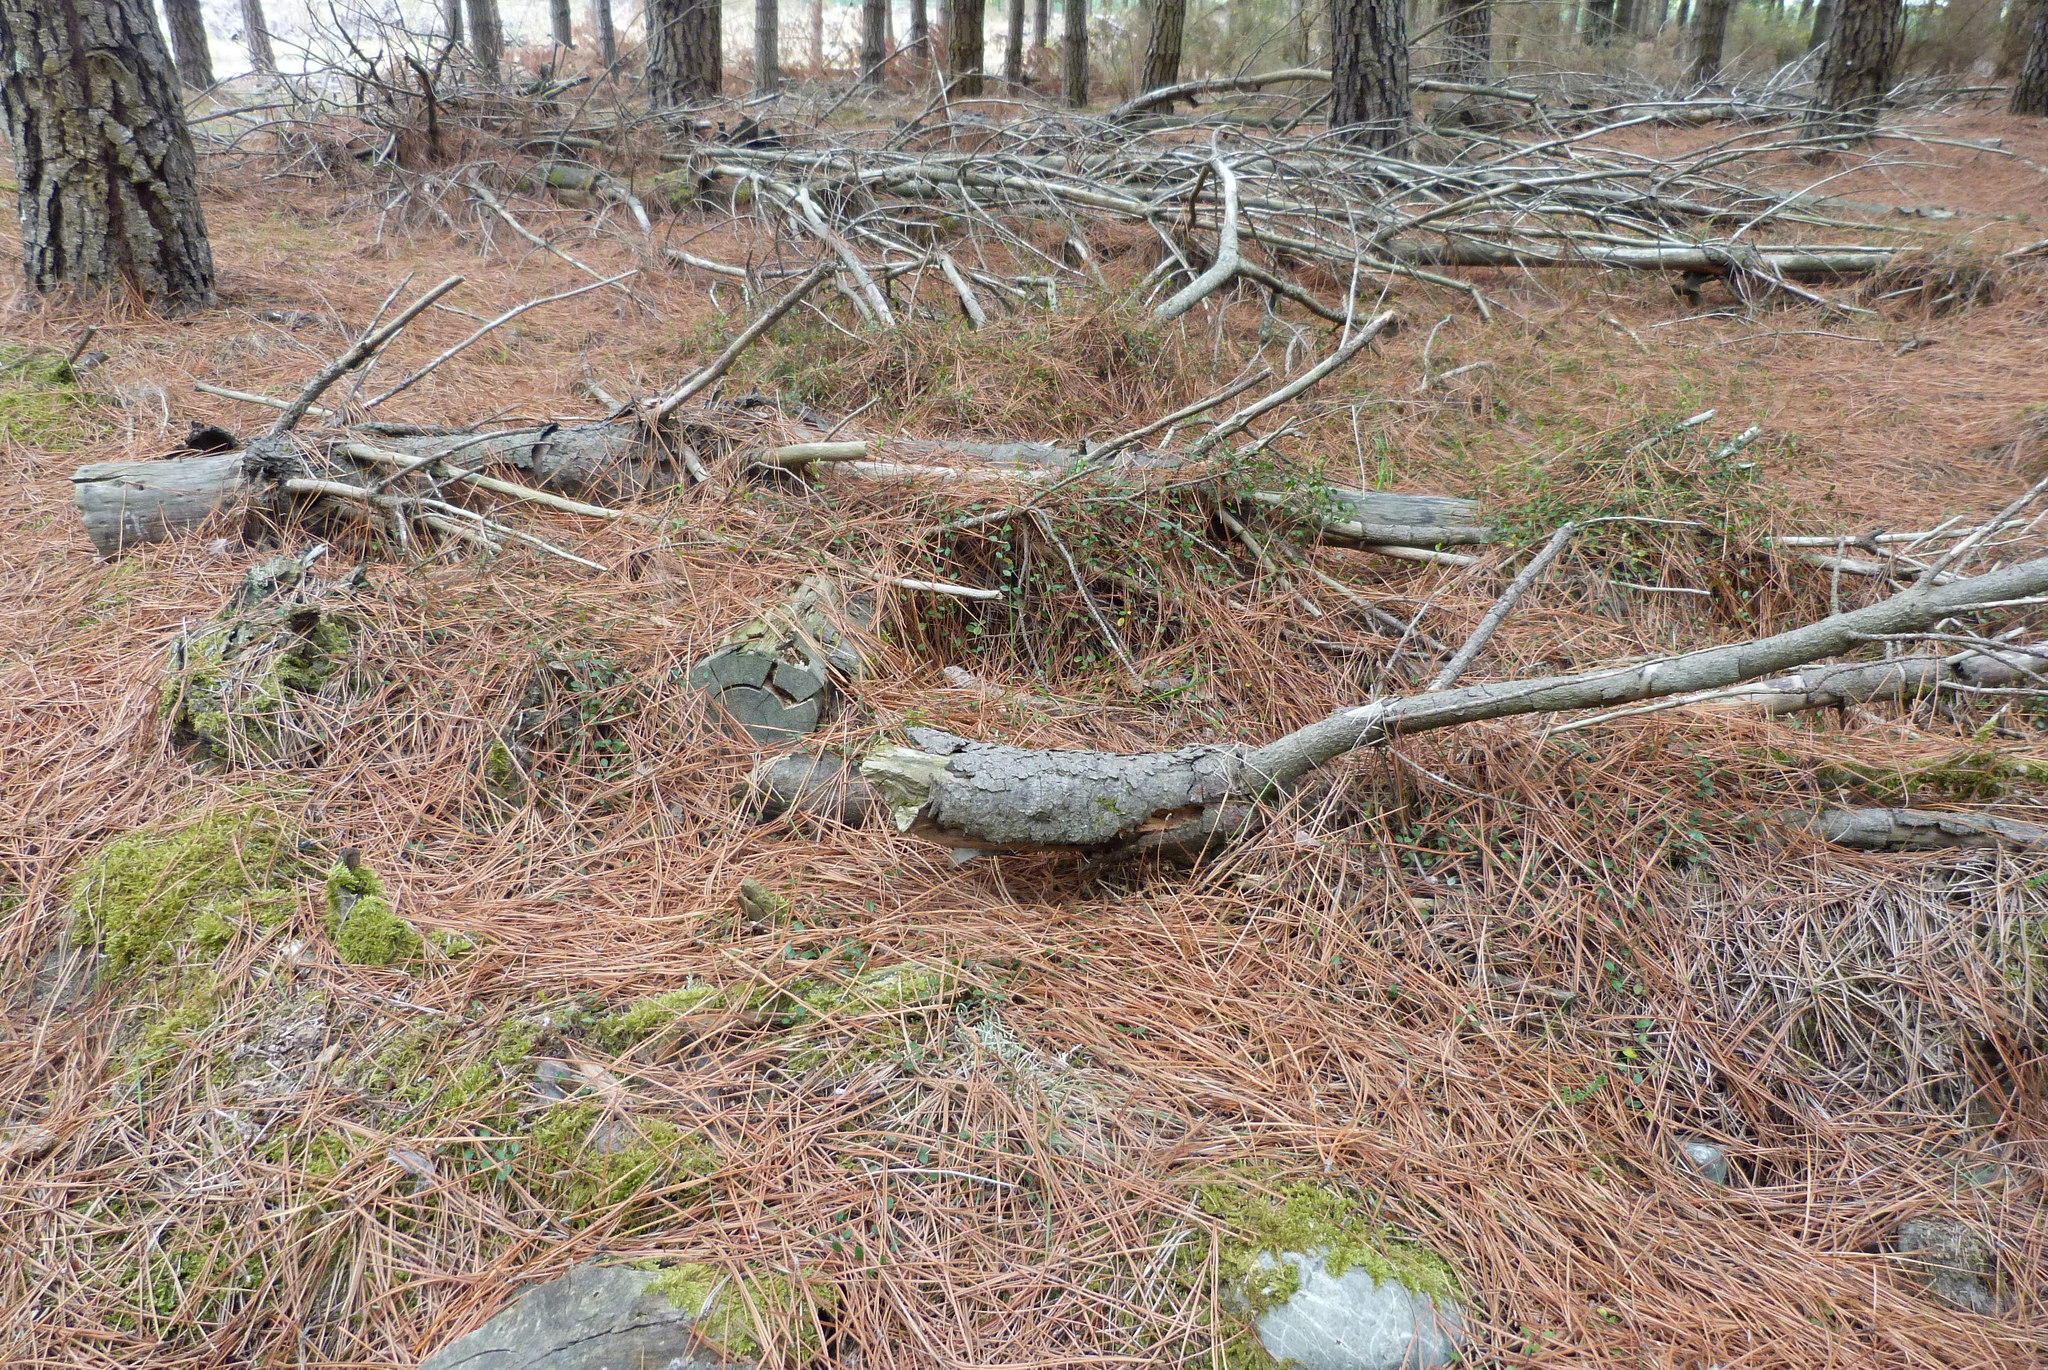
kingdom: Plantae
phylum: Tracheophyta
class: Magnoliopsida
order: Caryophyllales
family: Polygonaceae
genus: Muehlenbeckia
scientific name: Muehlenbeckia axillaris
